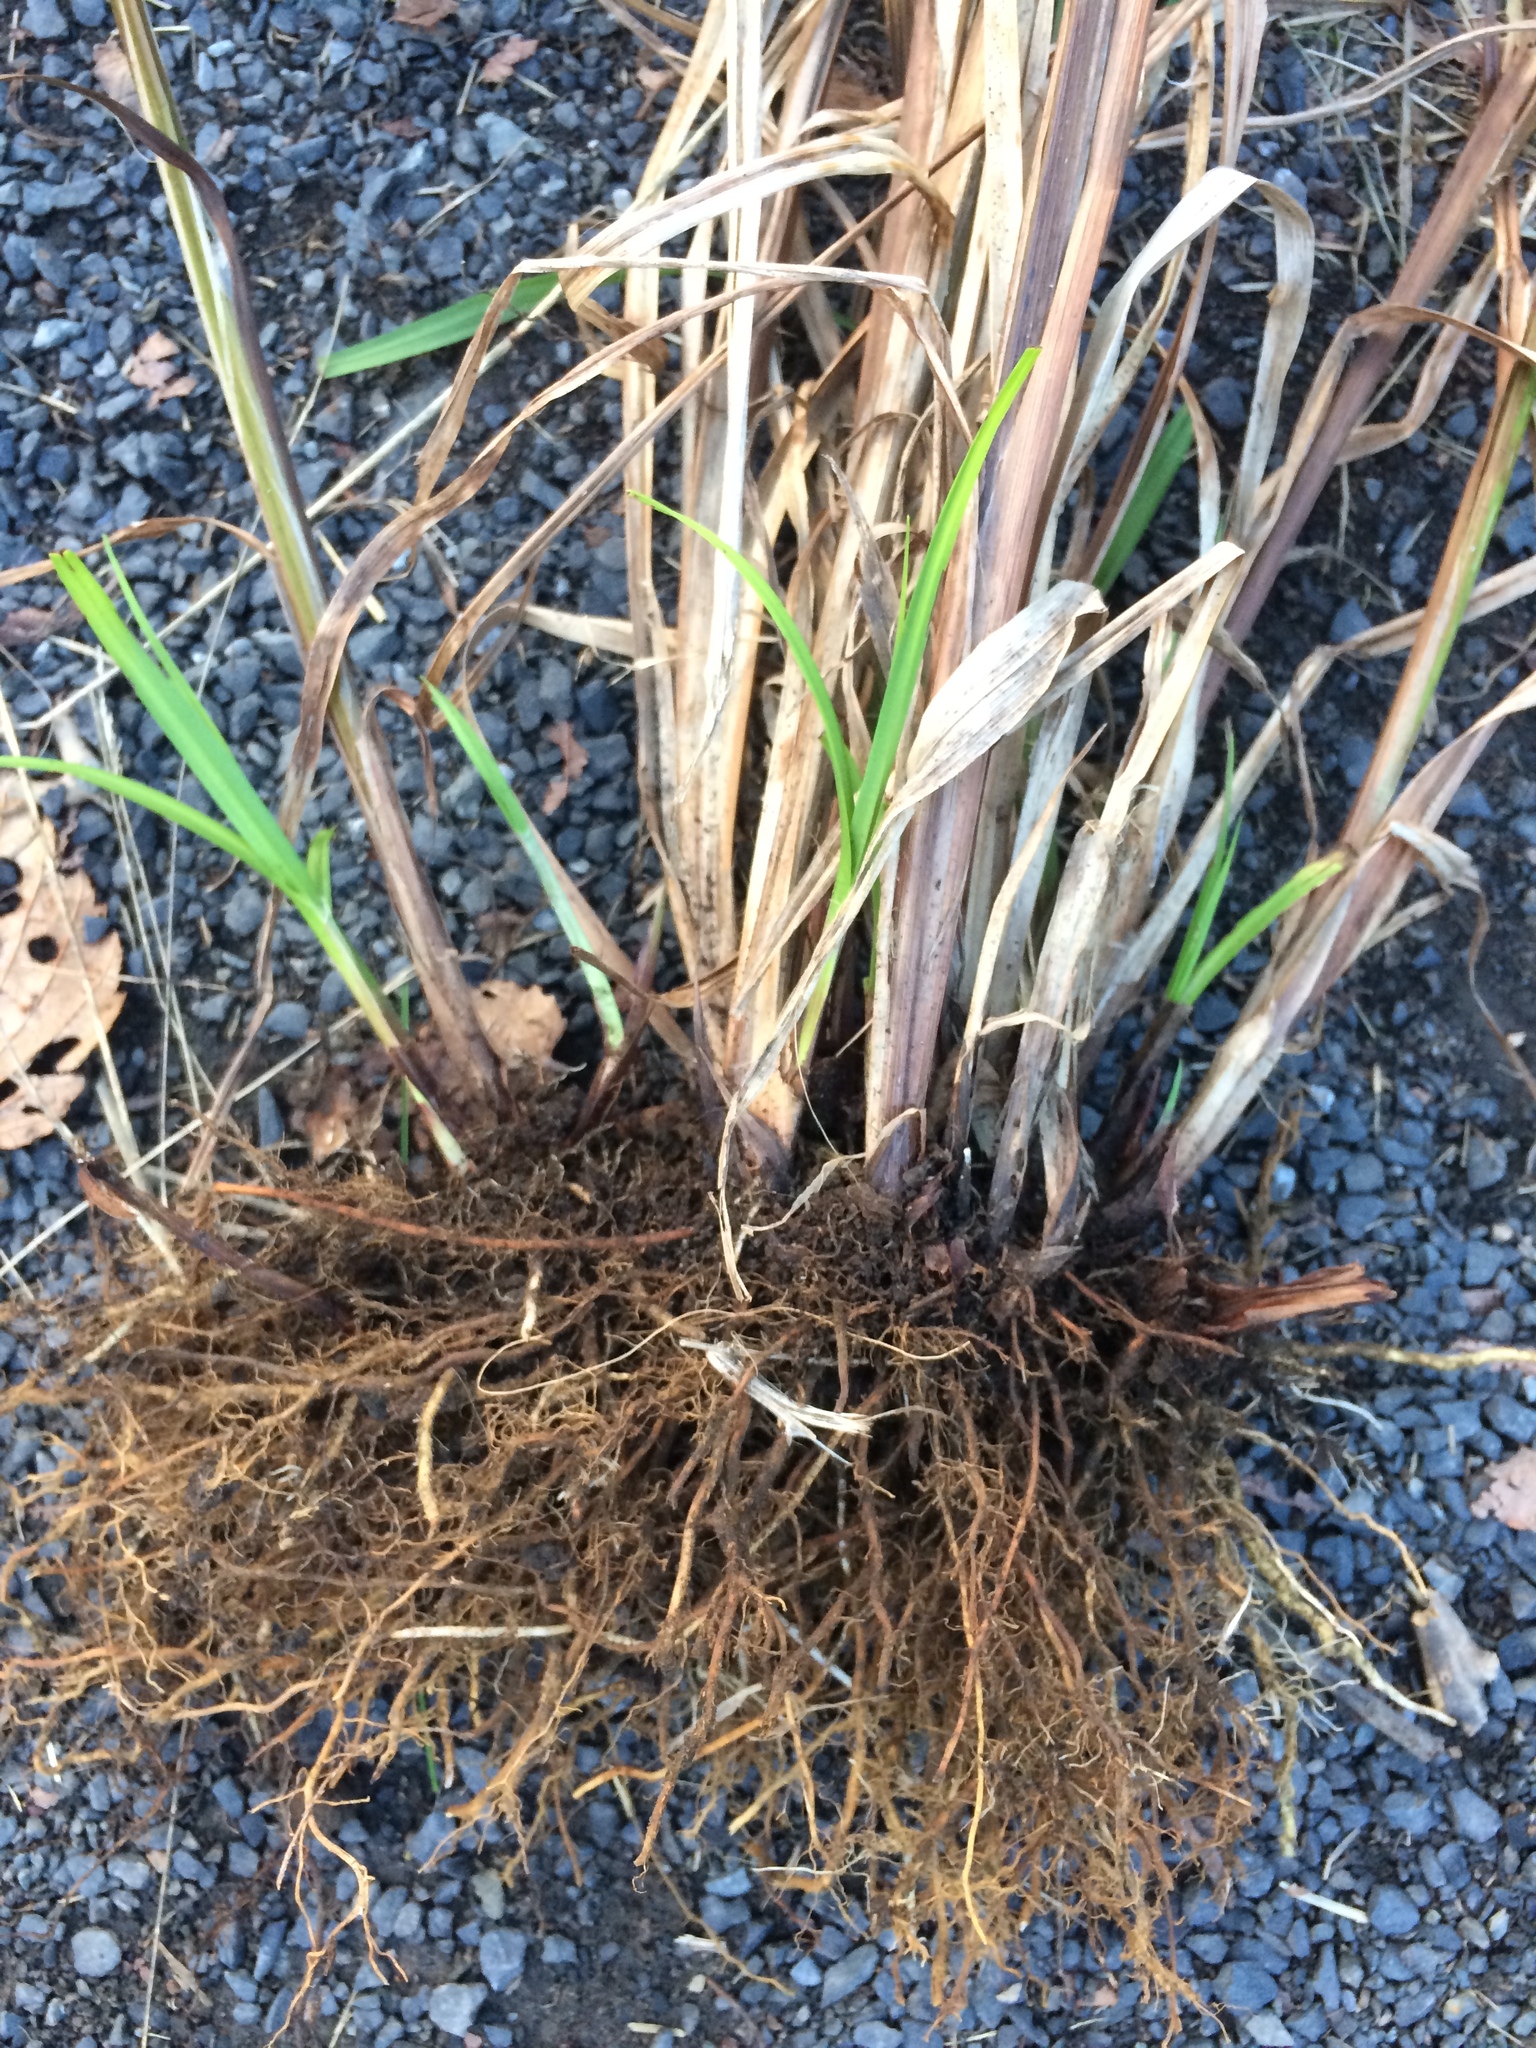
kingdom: Plantae
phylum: Tracheophyta
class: Liliopsida
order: Poales
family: Cyperaceae
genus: Carex
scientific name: Carex lupulina
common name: Hop sedge
